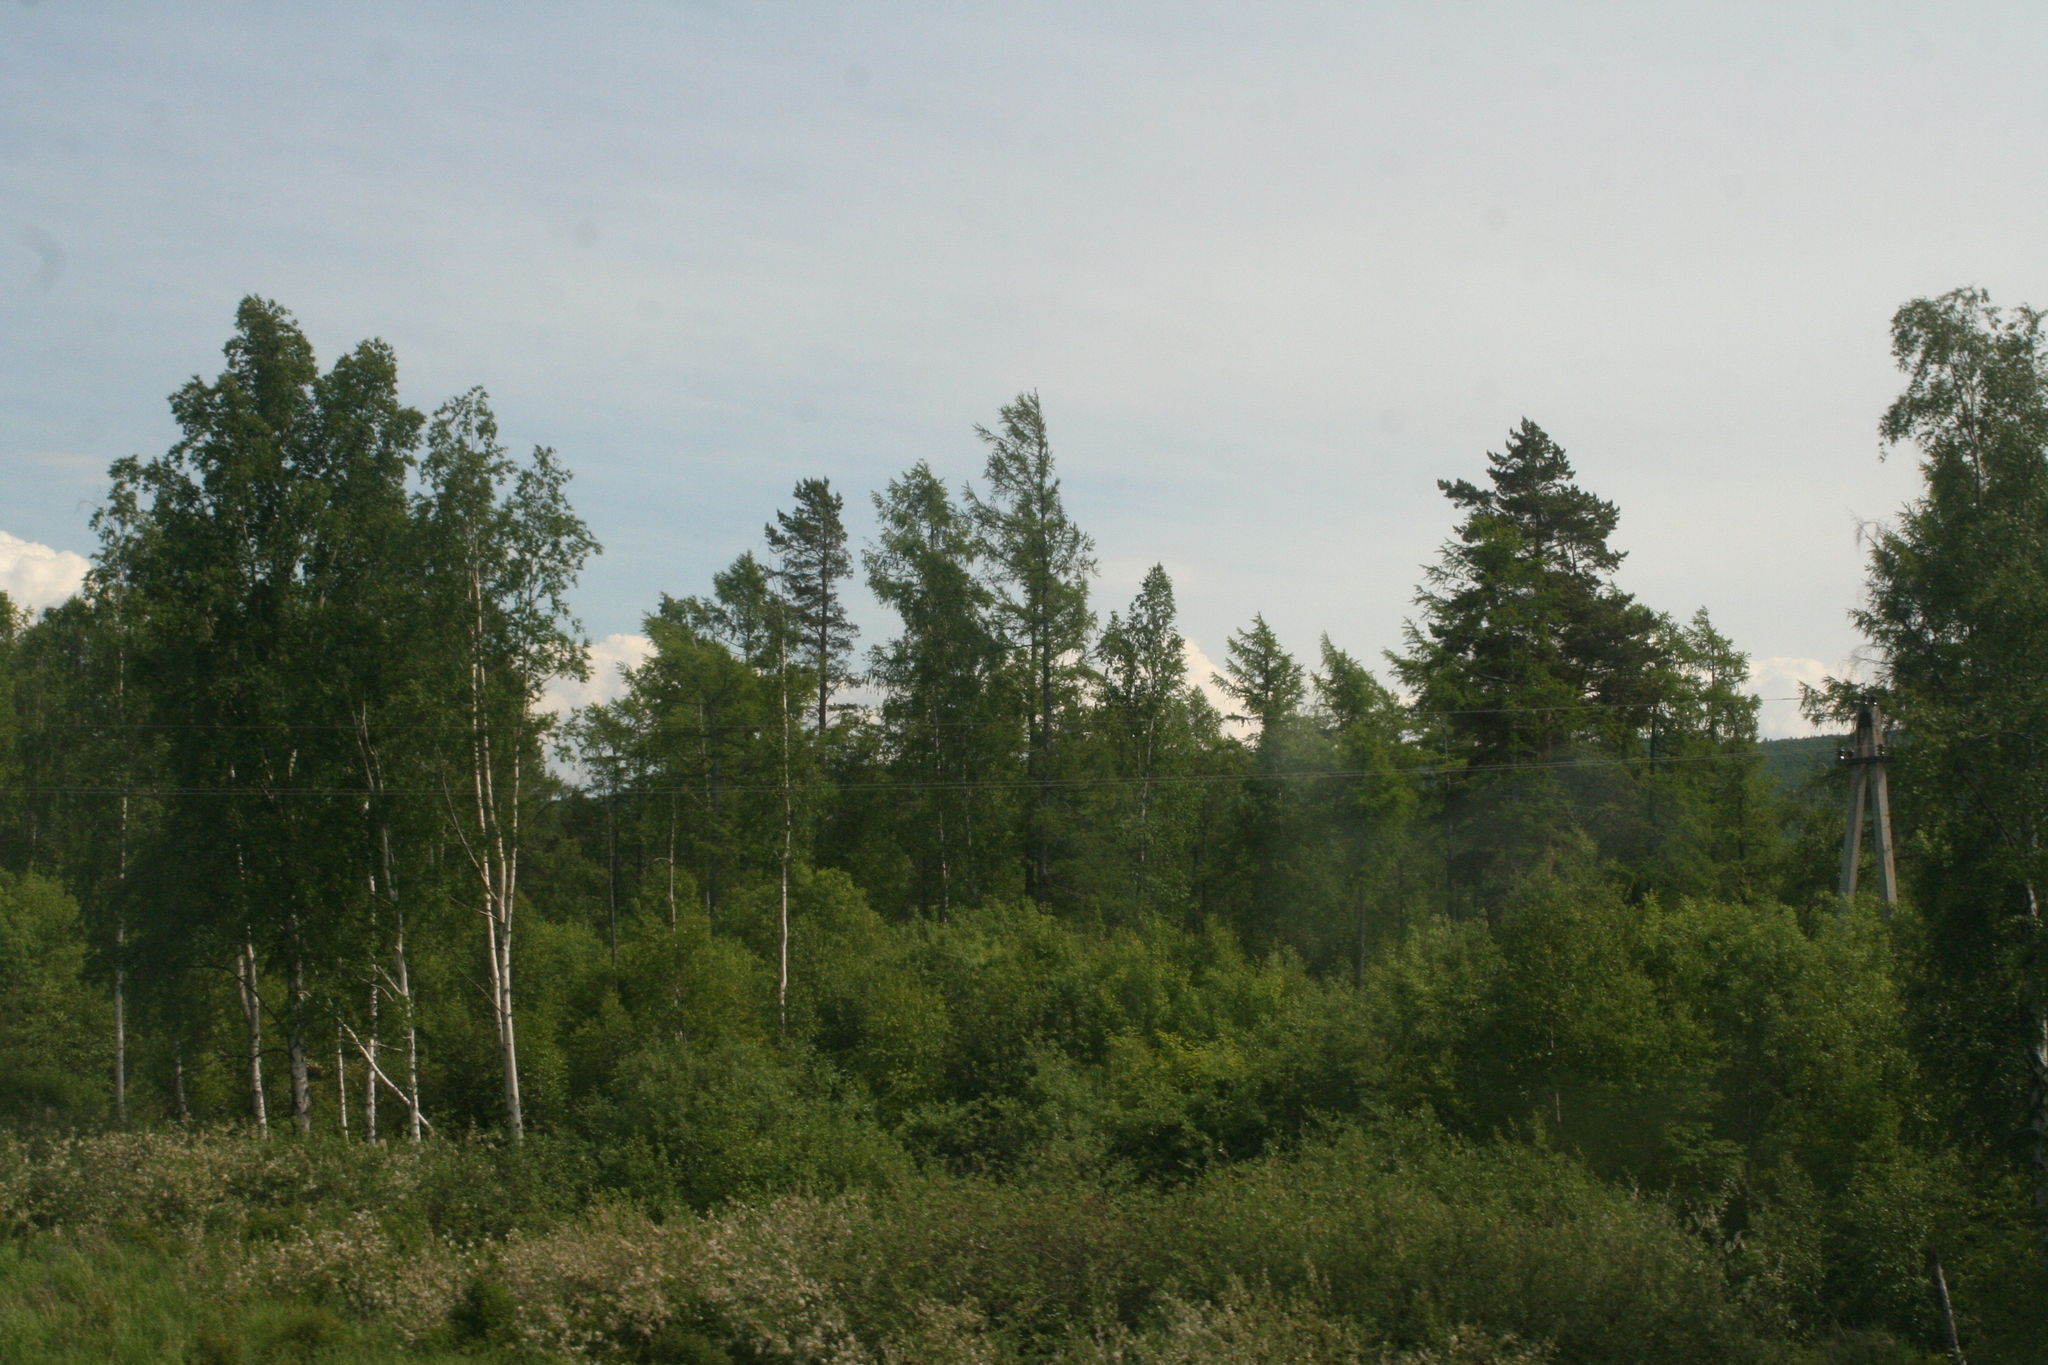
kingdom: Plantae
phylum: Tracheophyta
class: Magnoliopsida
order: Fagales
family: Betulaceae
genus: Betula
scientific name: Betula pendula
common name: Silver birch
